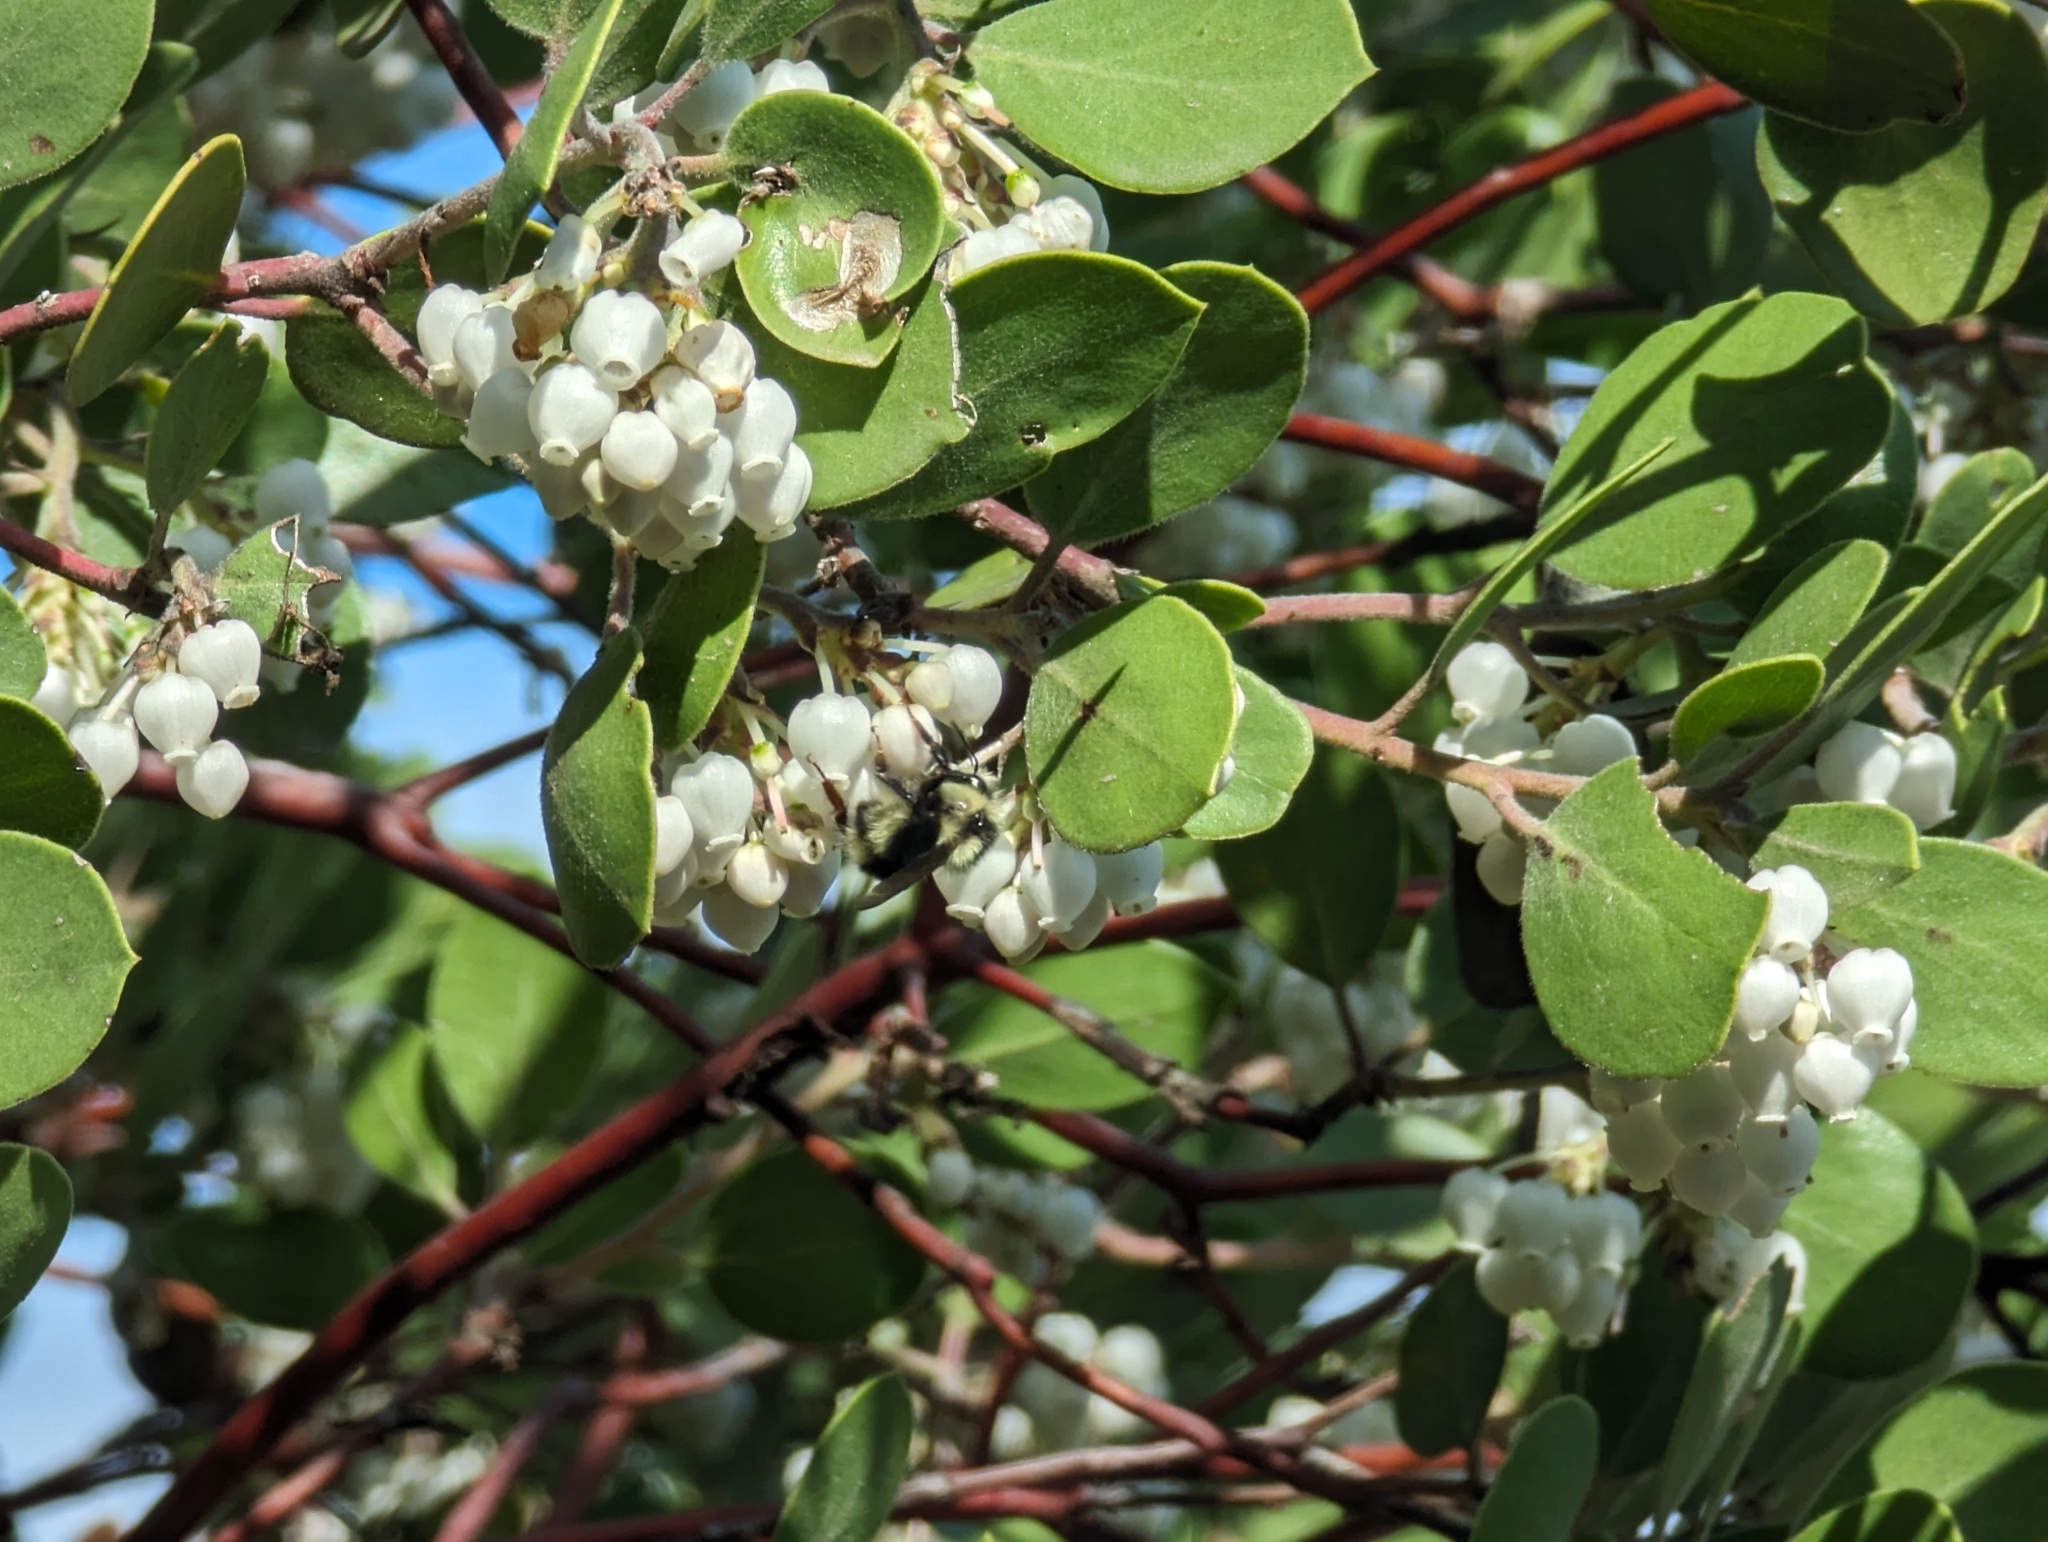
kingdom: Animalia
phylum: Arthropoda
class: Insecta
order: Hymenoptera
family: Apidae
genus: Bombus
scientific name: Bombus melanopygus
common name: Black tail bumble bee
